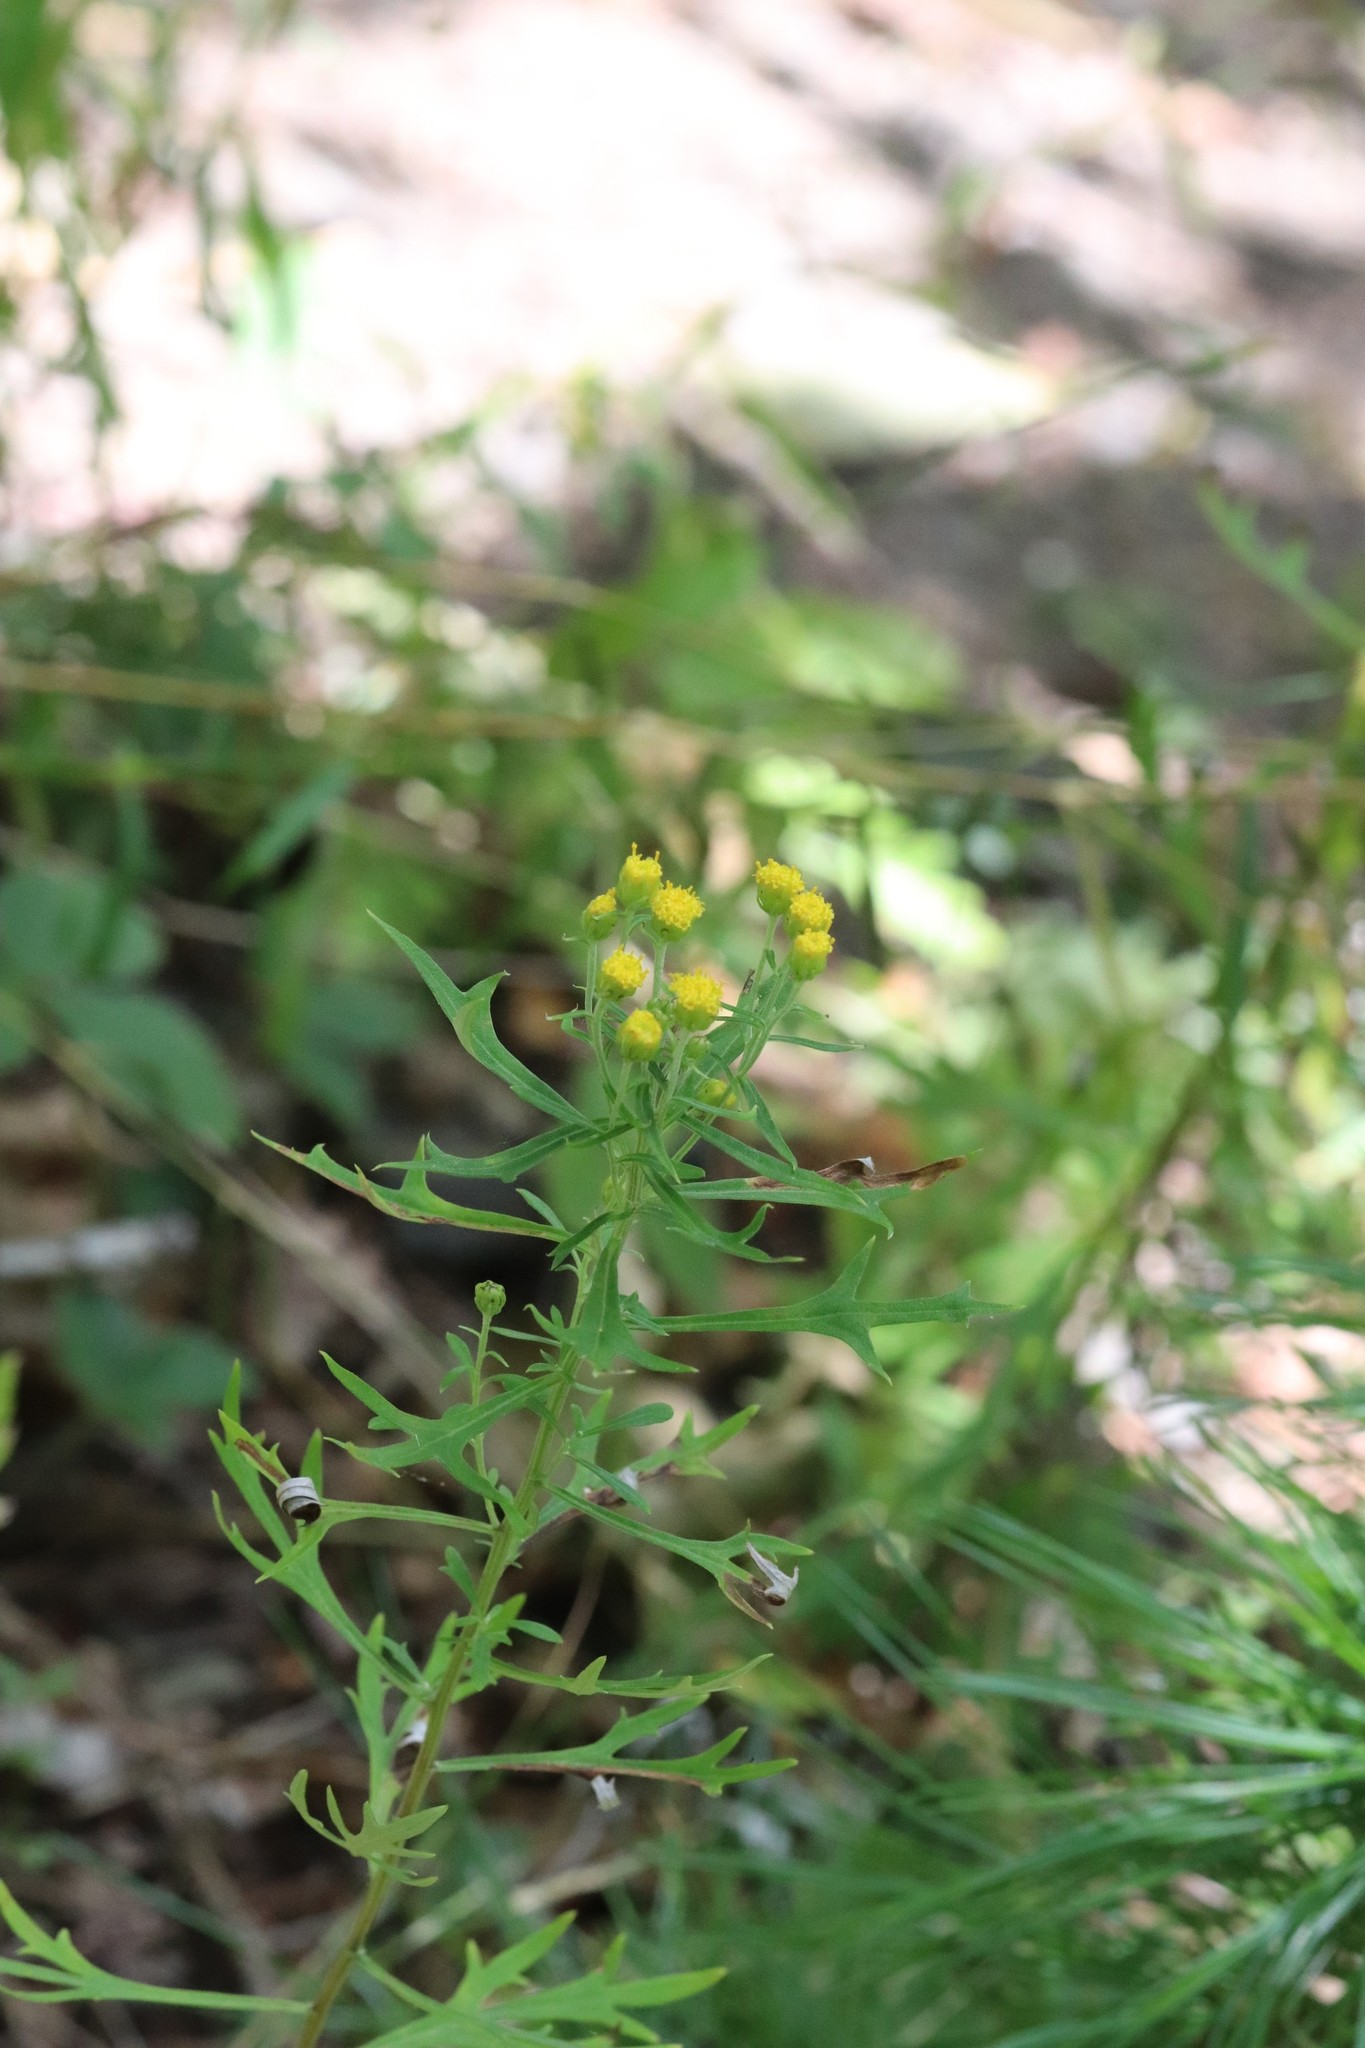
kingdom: Plantae
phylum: Tracheophyta
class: Magnoliopsida
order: Asterales
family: Asteraceae
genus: Ajania
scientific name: Ajania pallasiana
